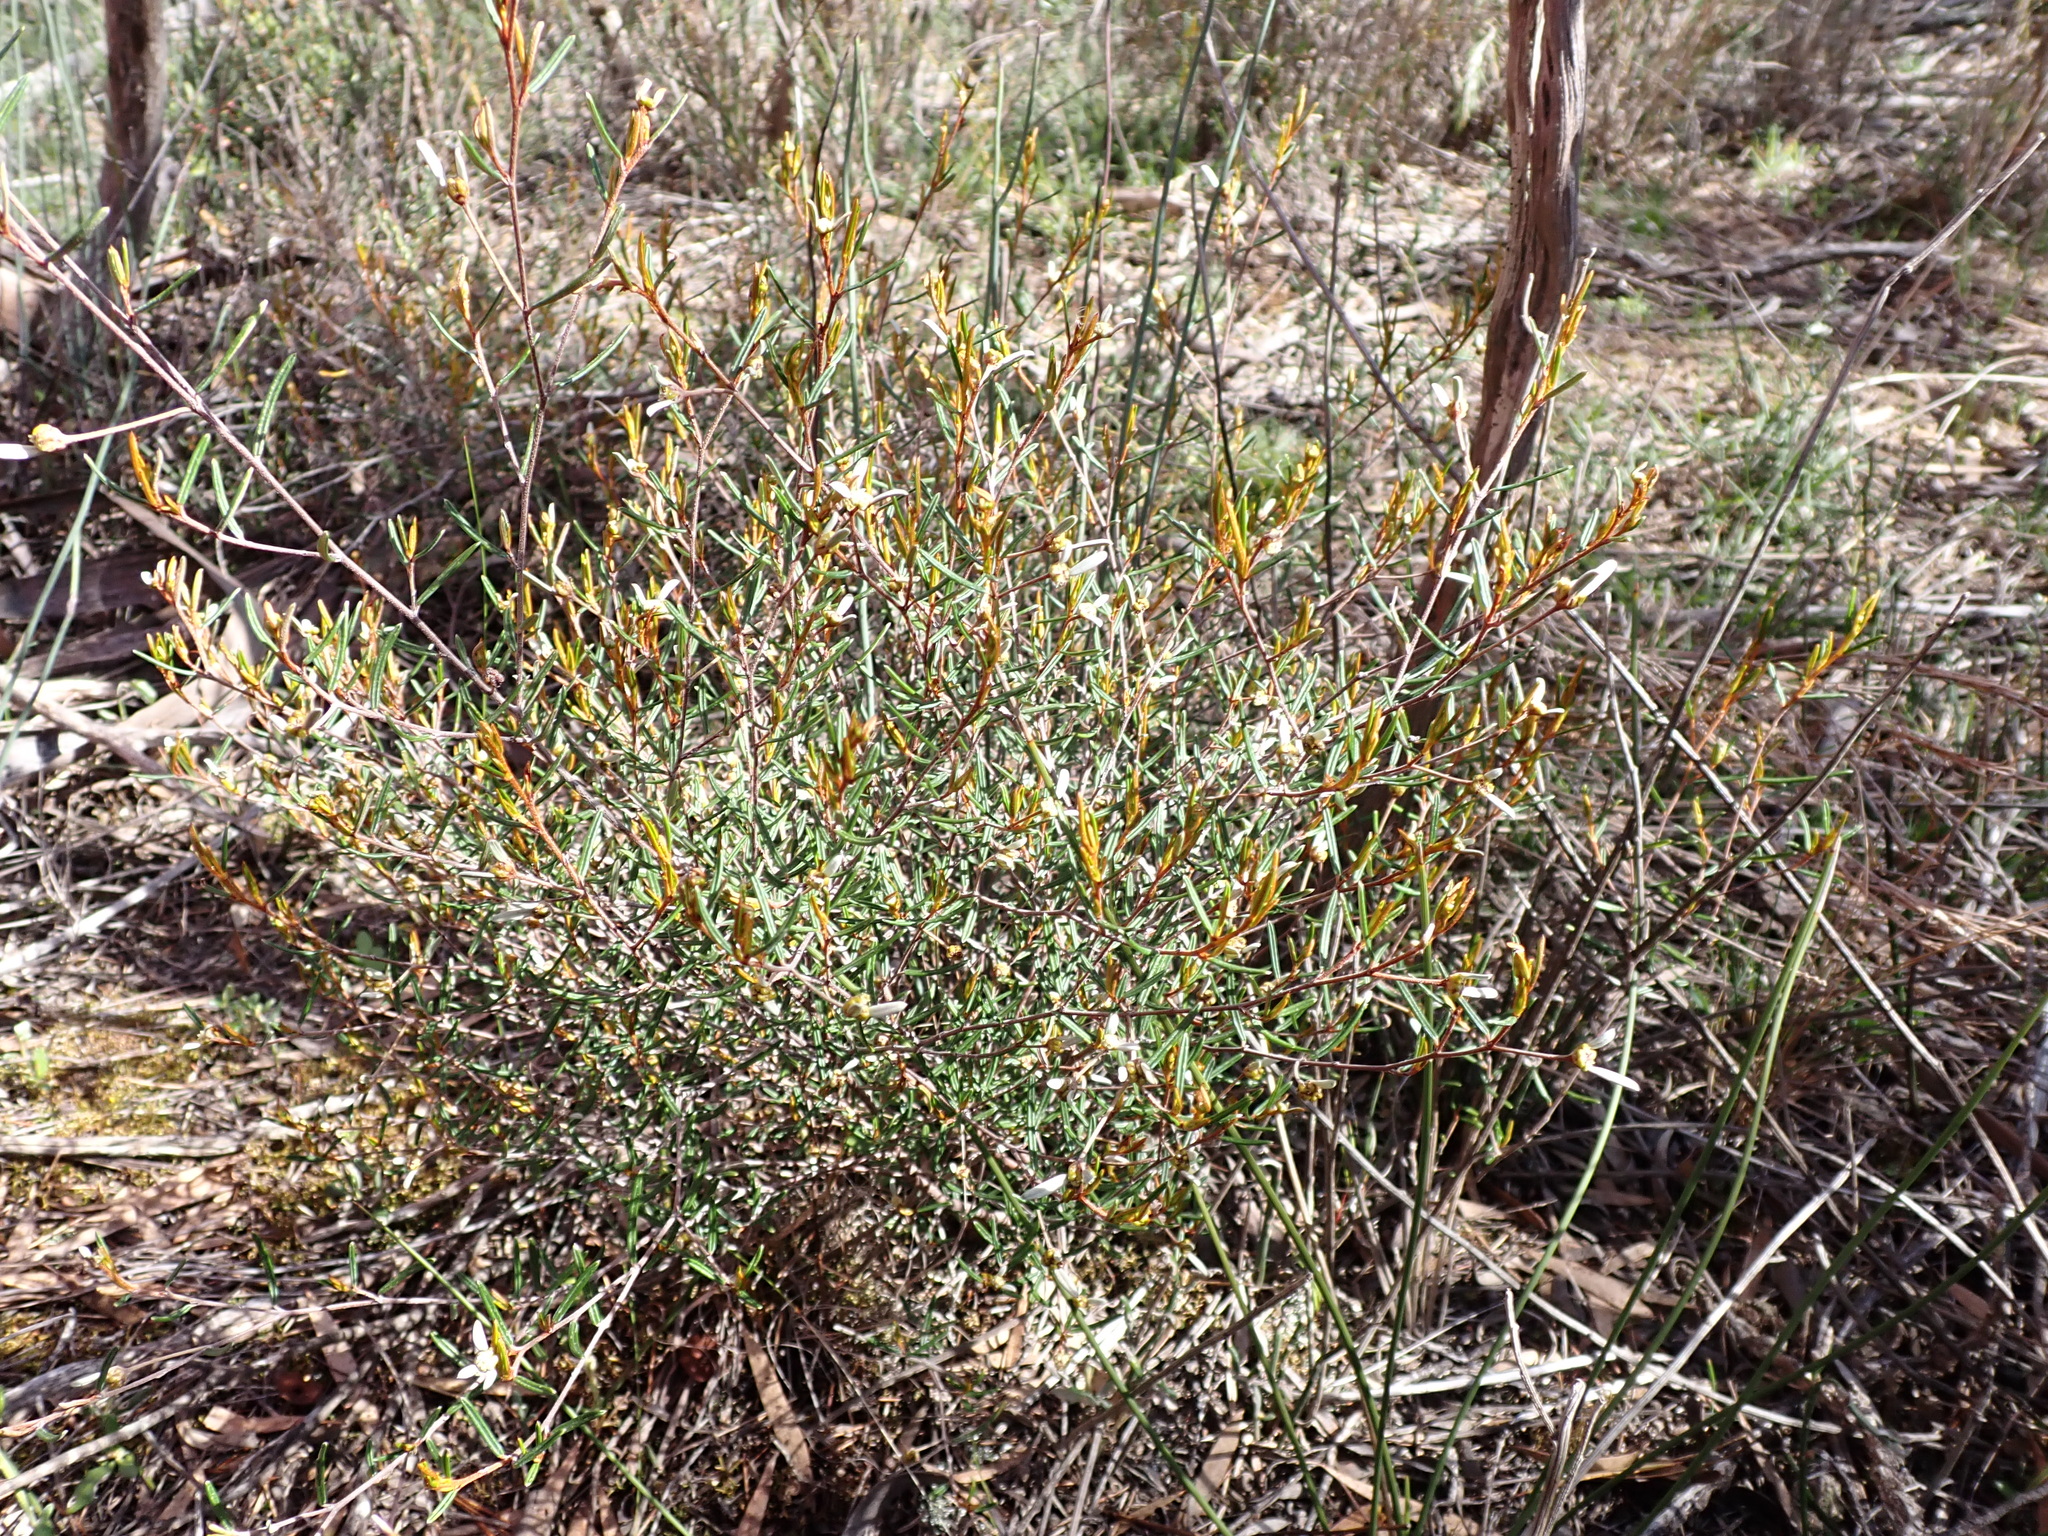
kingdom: Plantae
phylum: Tracheophyta
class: Magnoliopsida
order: Rosales
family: Rhamnaceae
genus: Spyridium
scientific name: Spyridium vexilliferum
